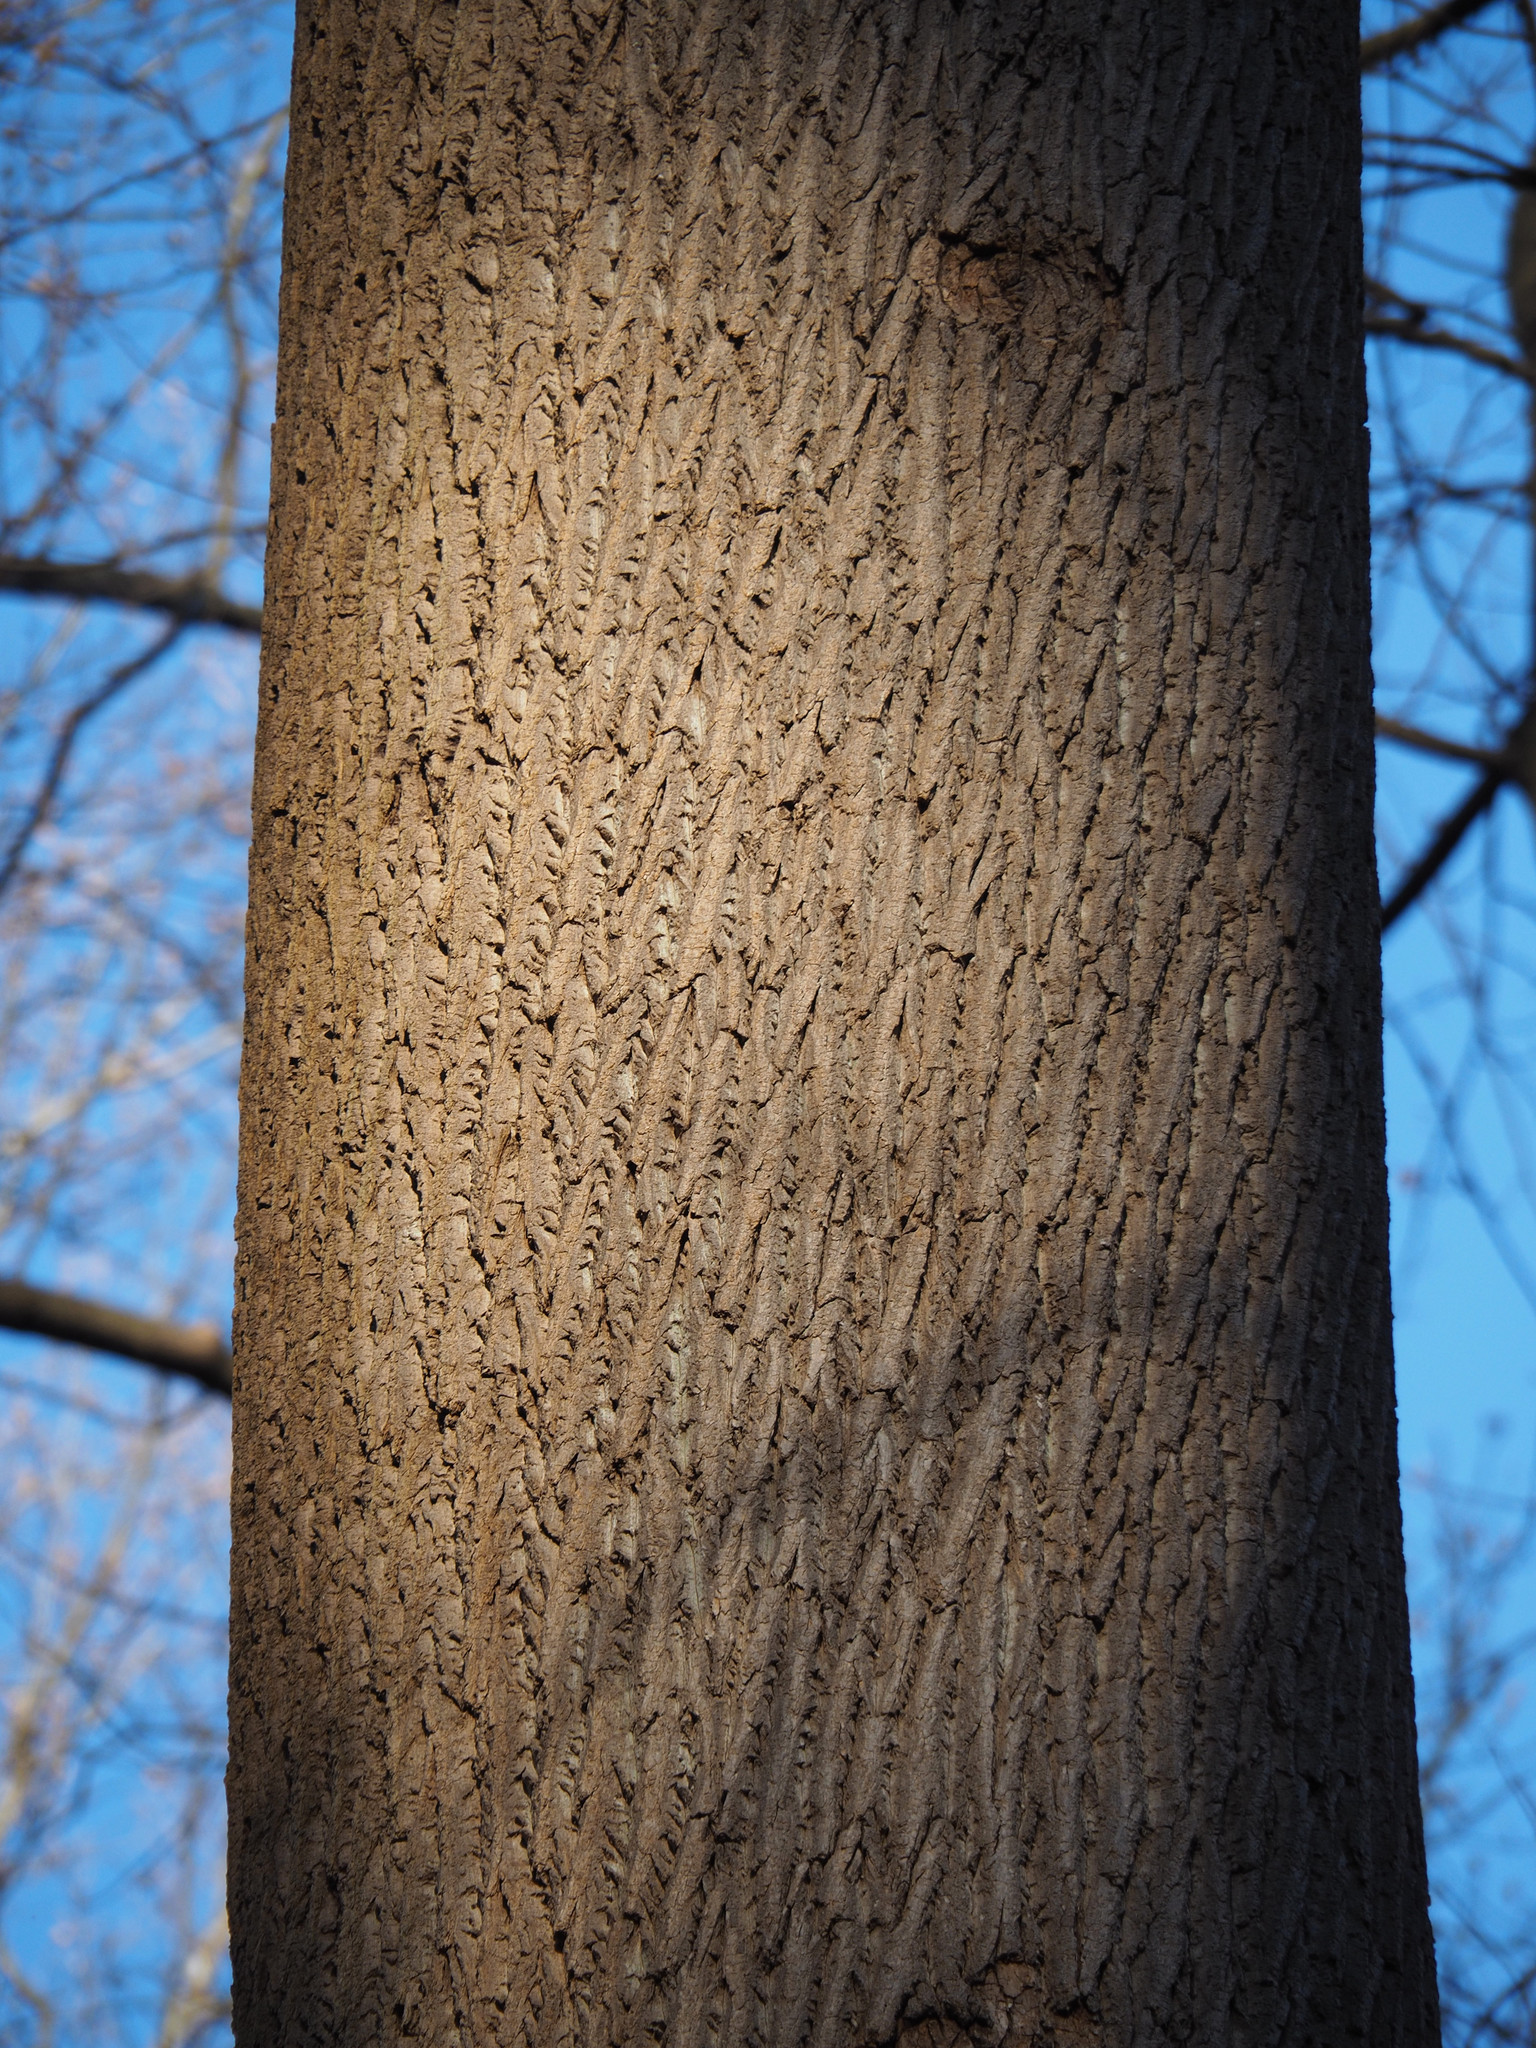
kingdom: Plantae
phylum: Tracheophyta
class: Magnoliopsida
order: Magnoliales
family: Magnoliaceae
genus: Liriodendron
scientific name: Liriodendron tulipifera
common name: Tulip tree
